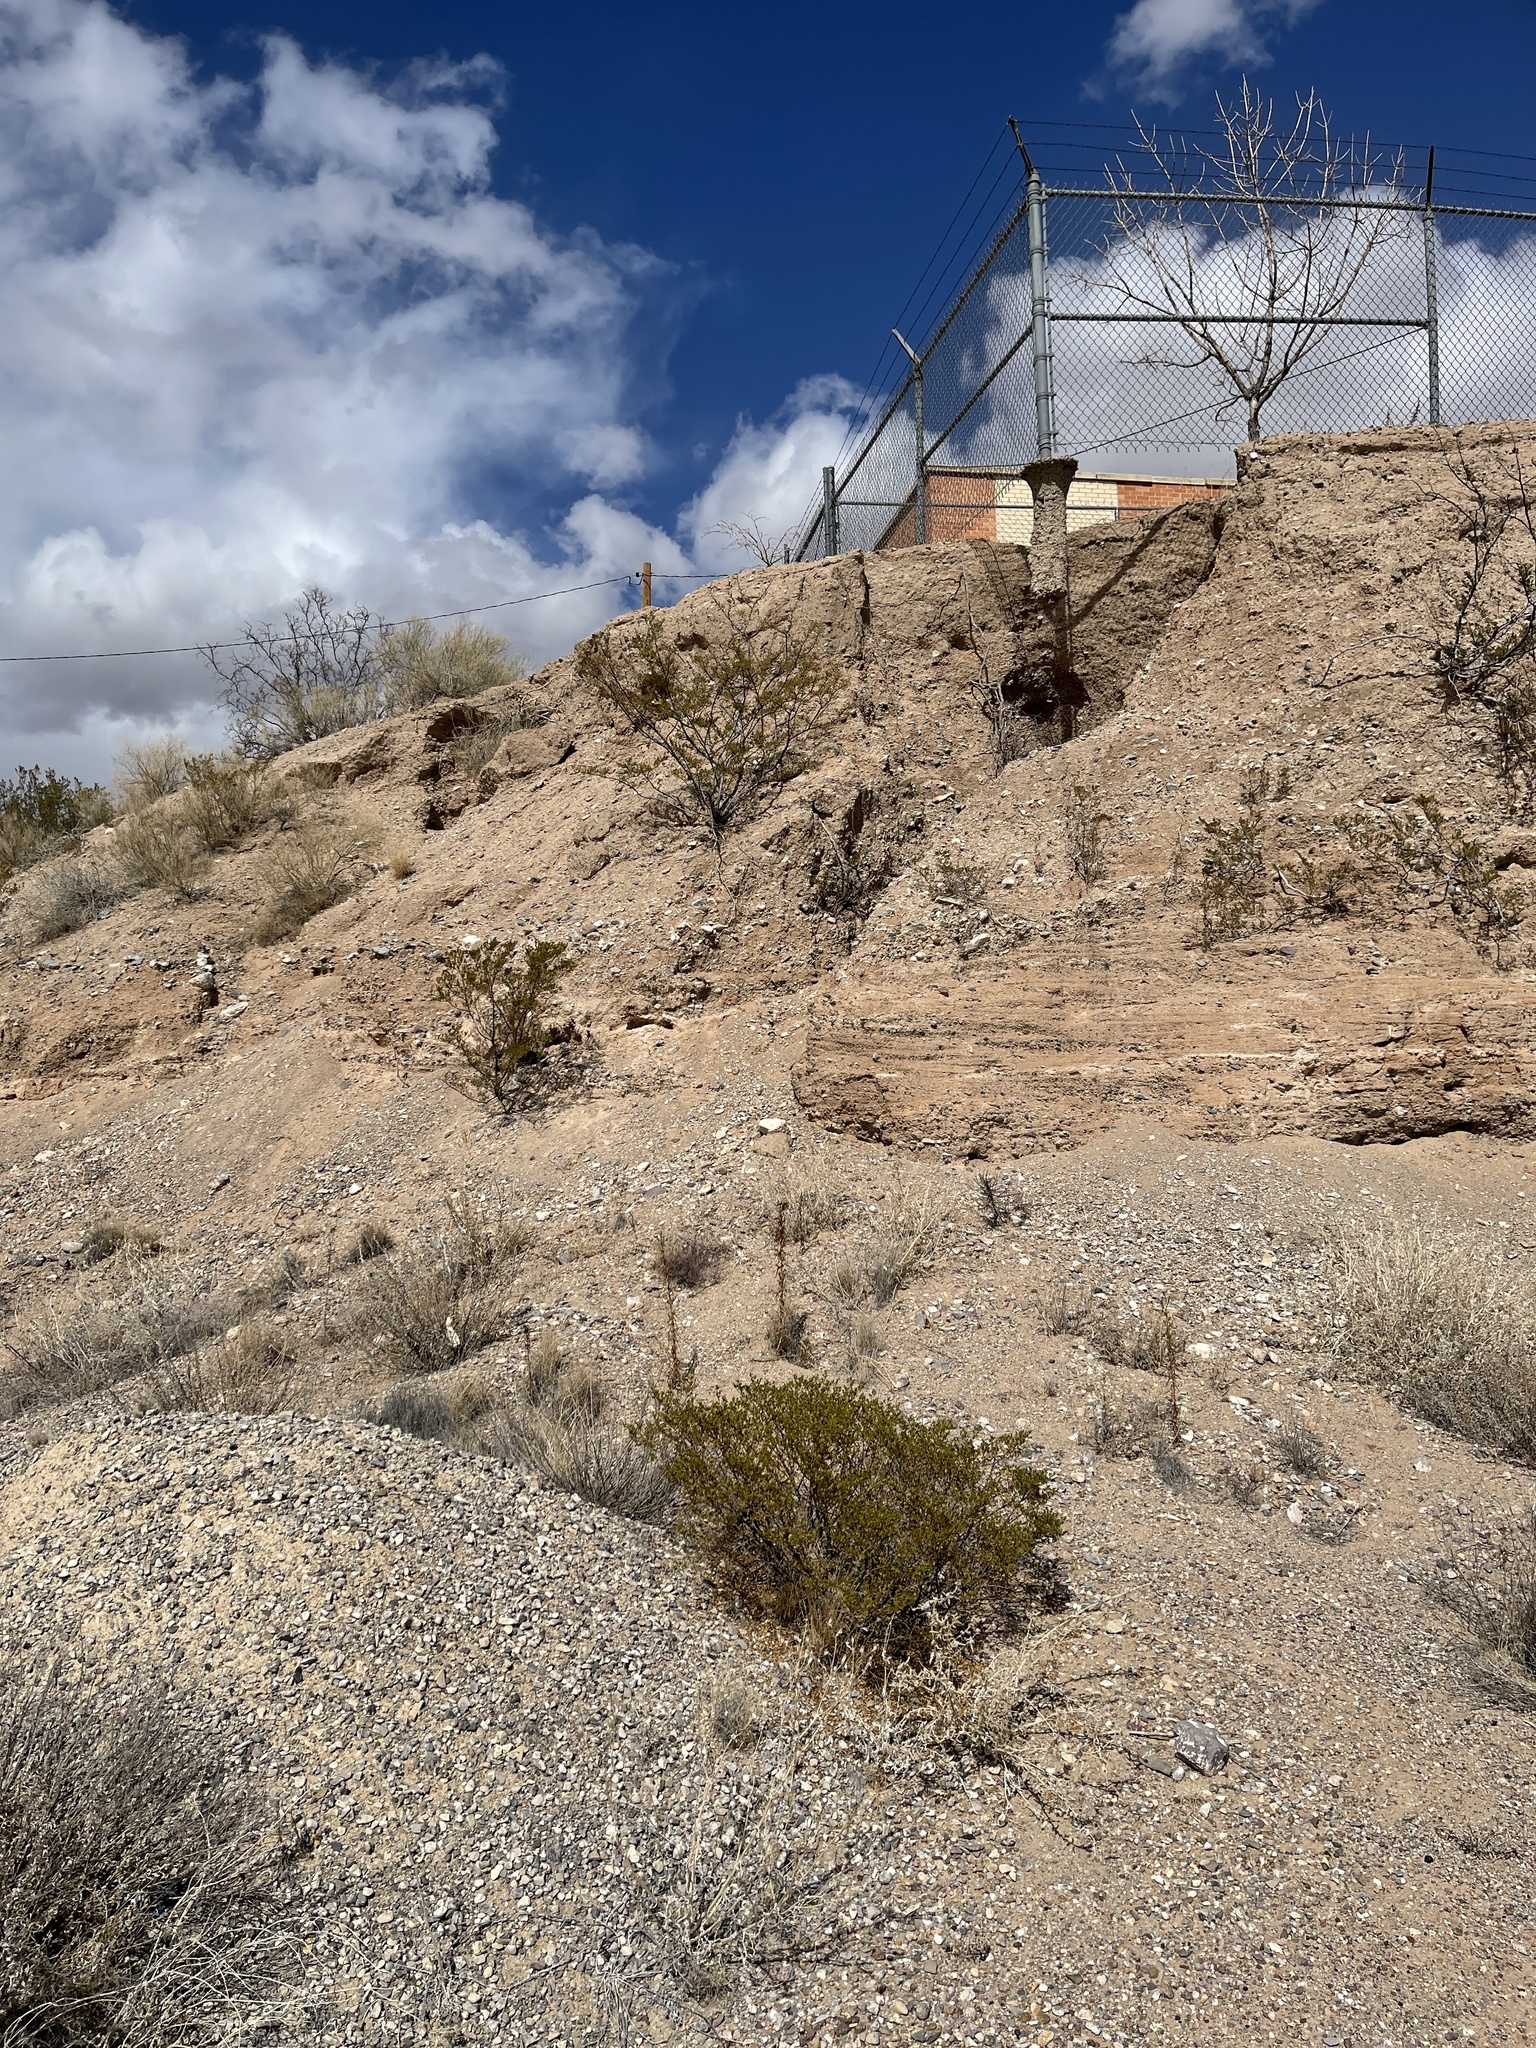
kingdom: Plantae
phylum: Tracheophyta
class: Magnoliopsida
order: Zygophyllales
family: Zygophyllaceae
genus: Larrea
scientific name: Larrea tridentata
